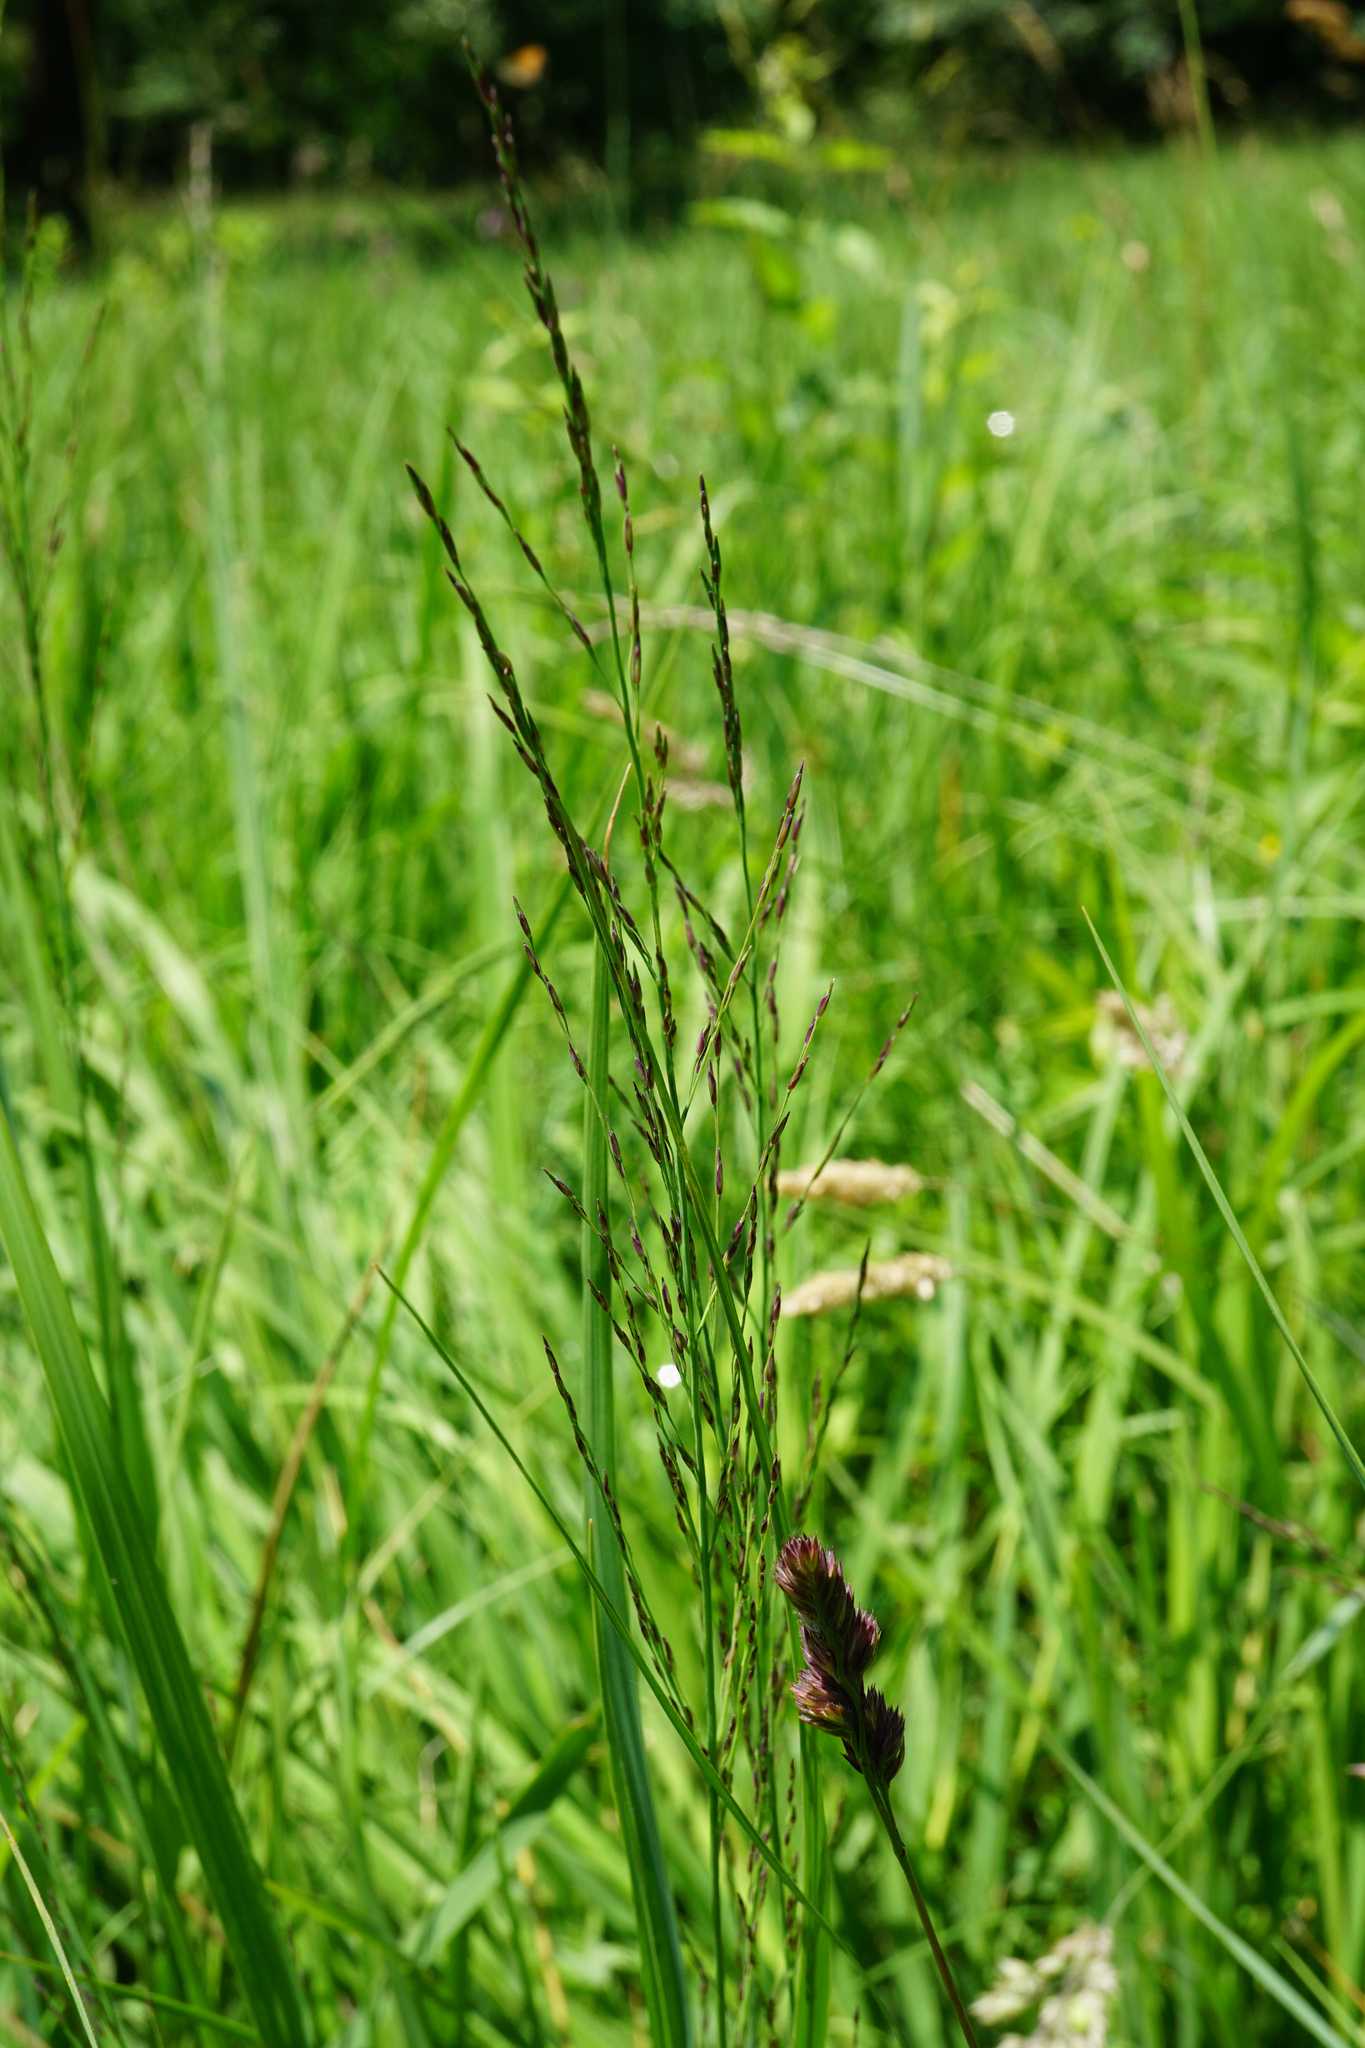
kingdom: Plantae
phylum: Tracheophyta
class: Liliopsida
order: Poales
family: Poaceae
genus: Molinia
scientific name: Molinia caerulea
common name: Purple moor-grass
